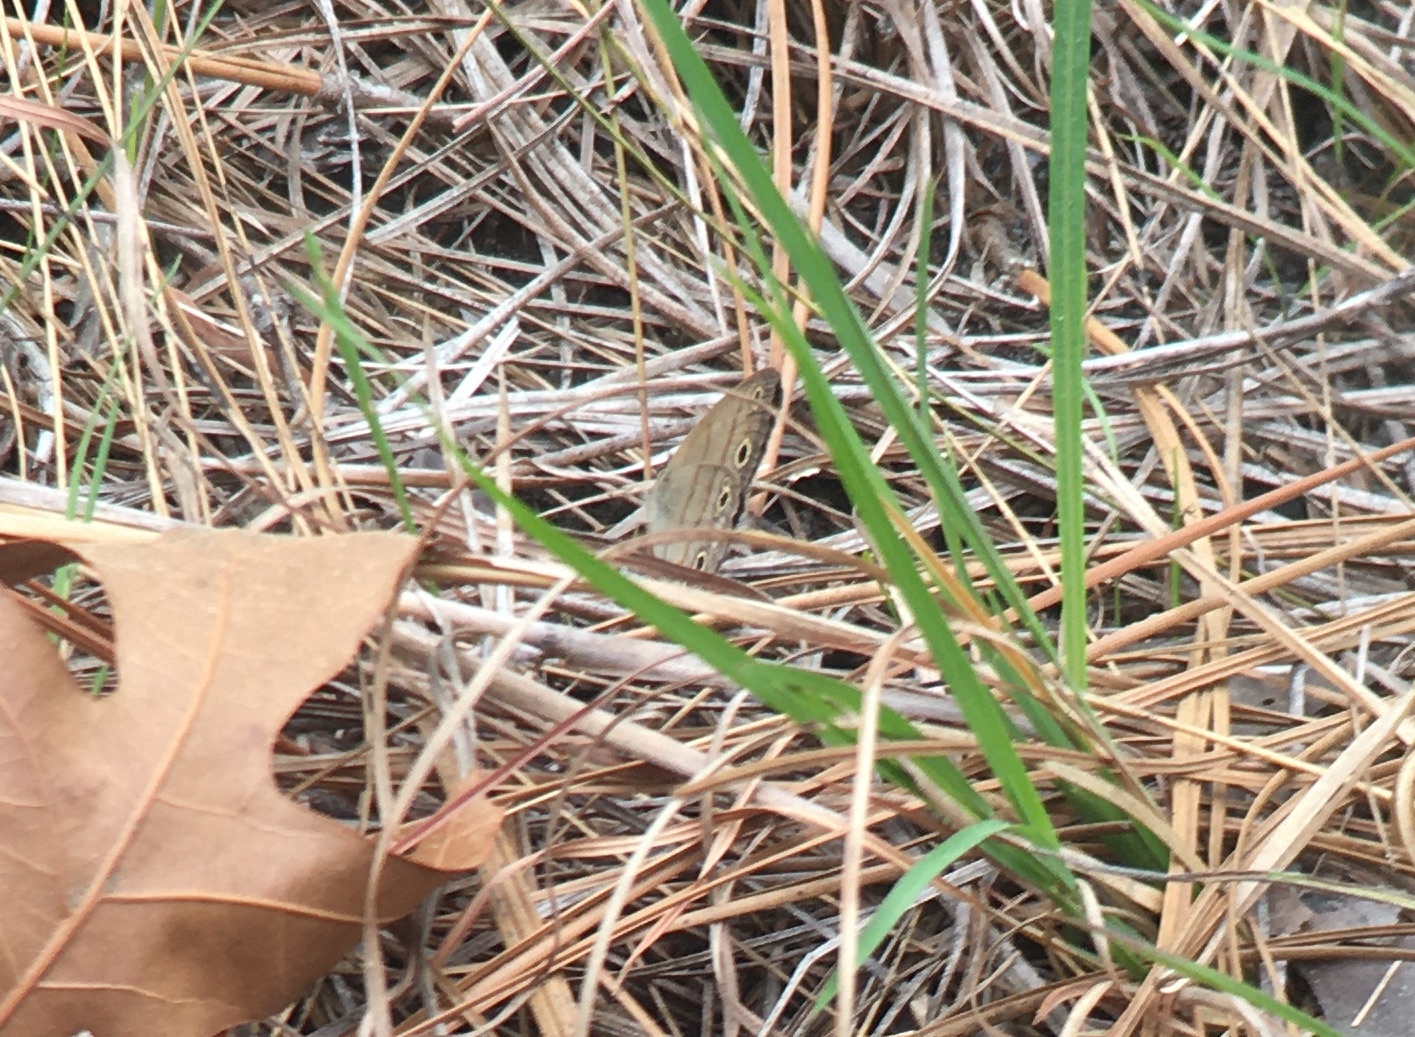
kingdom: Animalia
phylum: Arthropoda
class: Insecta
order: Lepidoptera
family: Nymphalidae
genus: Euptychia
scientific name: Euptychia cymela
